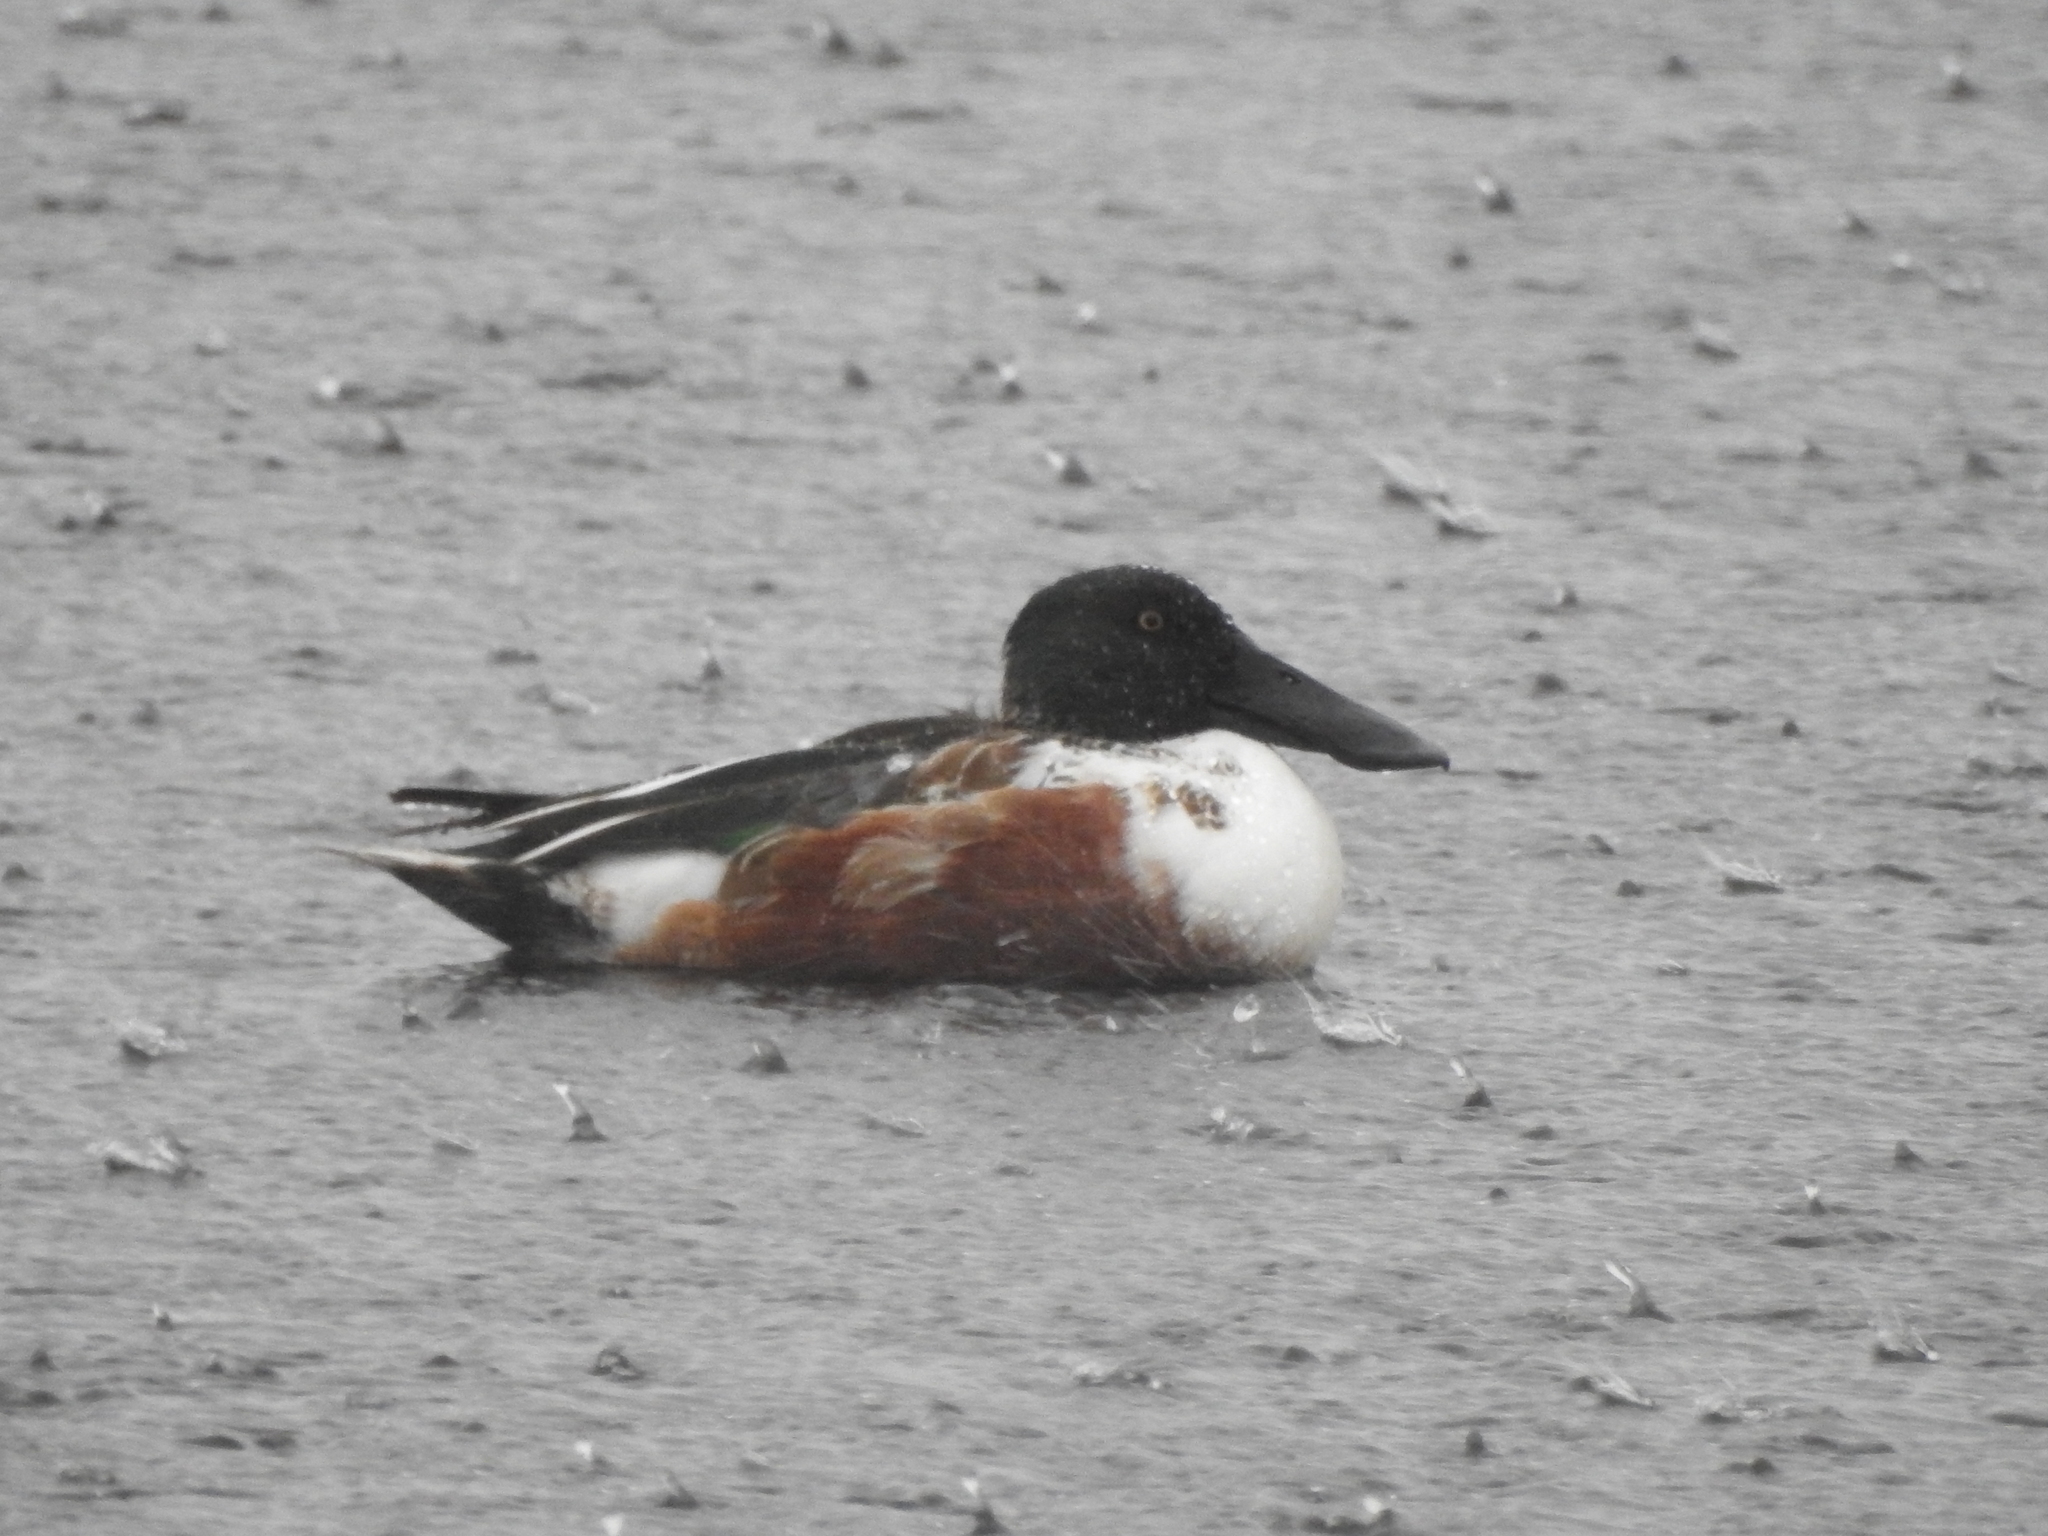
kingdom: Animalia
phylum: Chordata
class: Aves
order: Anseriformes
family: Anatidae
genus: Spatula
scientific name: Spatula clypeata
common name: Northern shoveler
